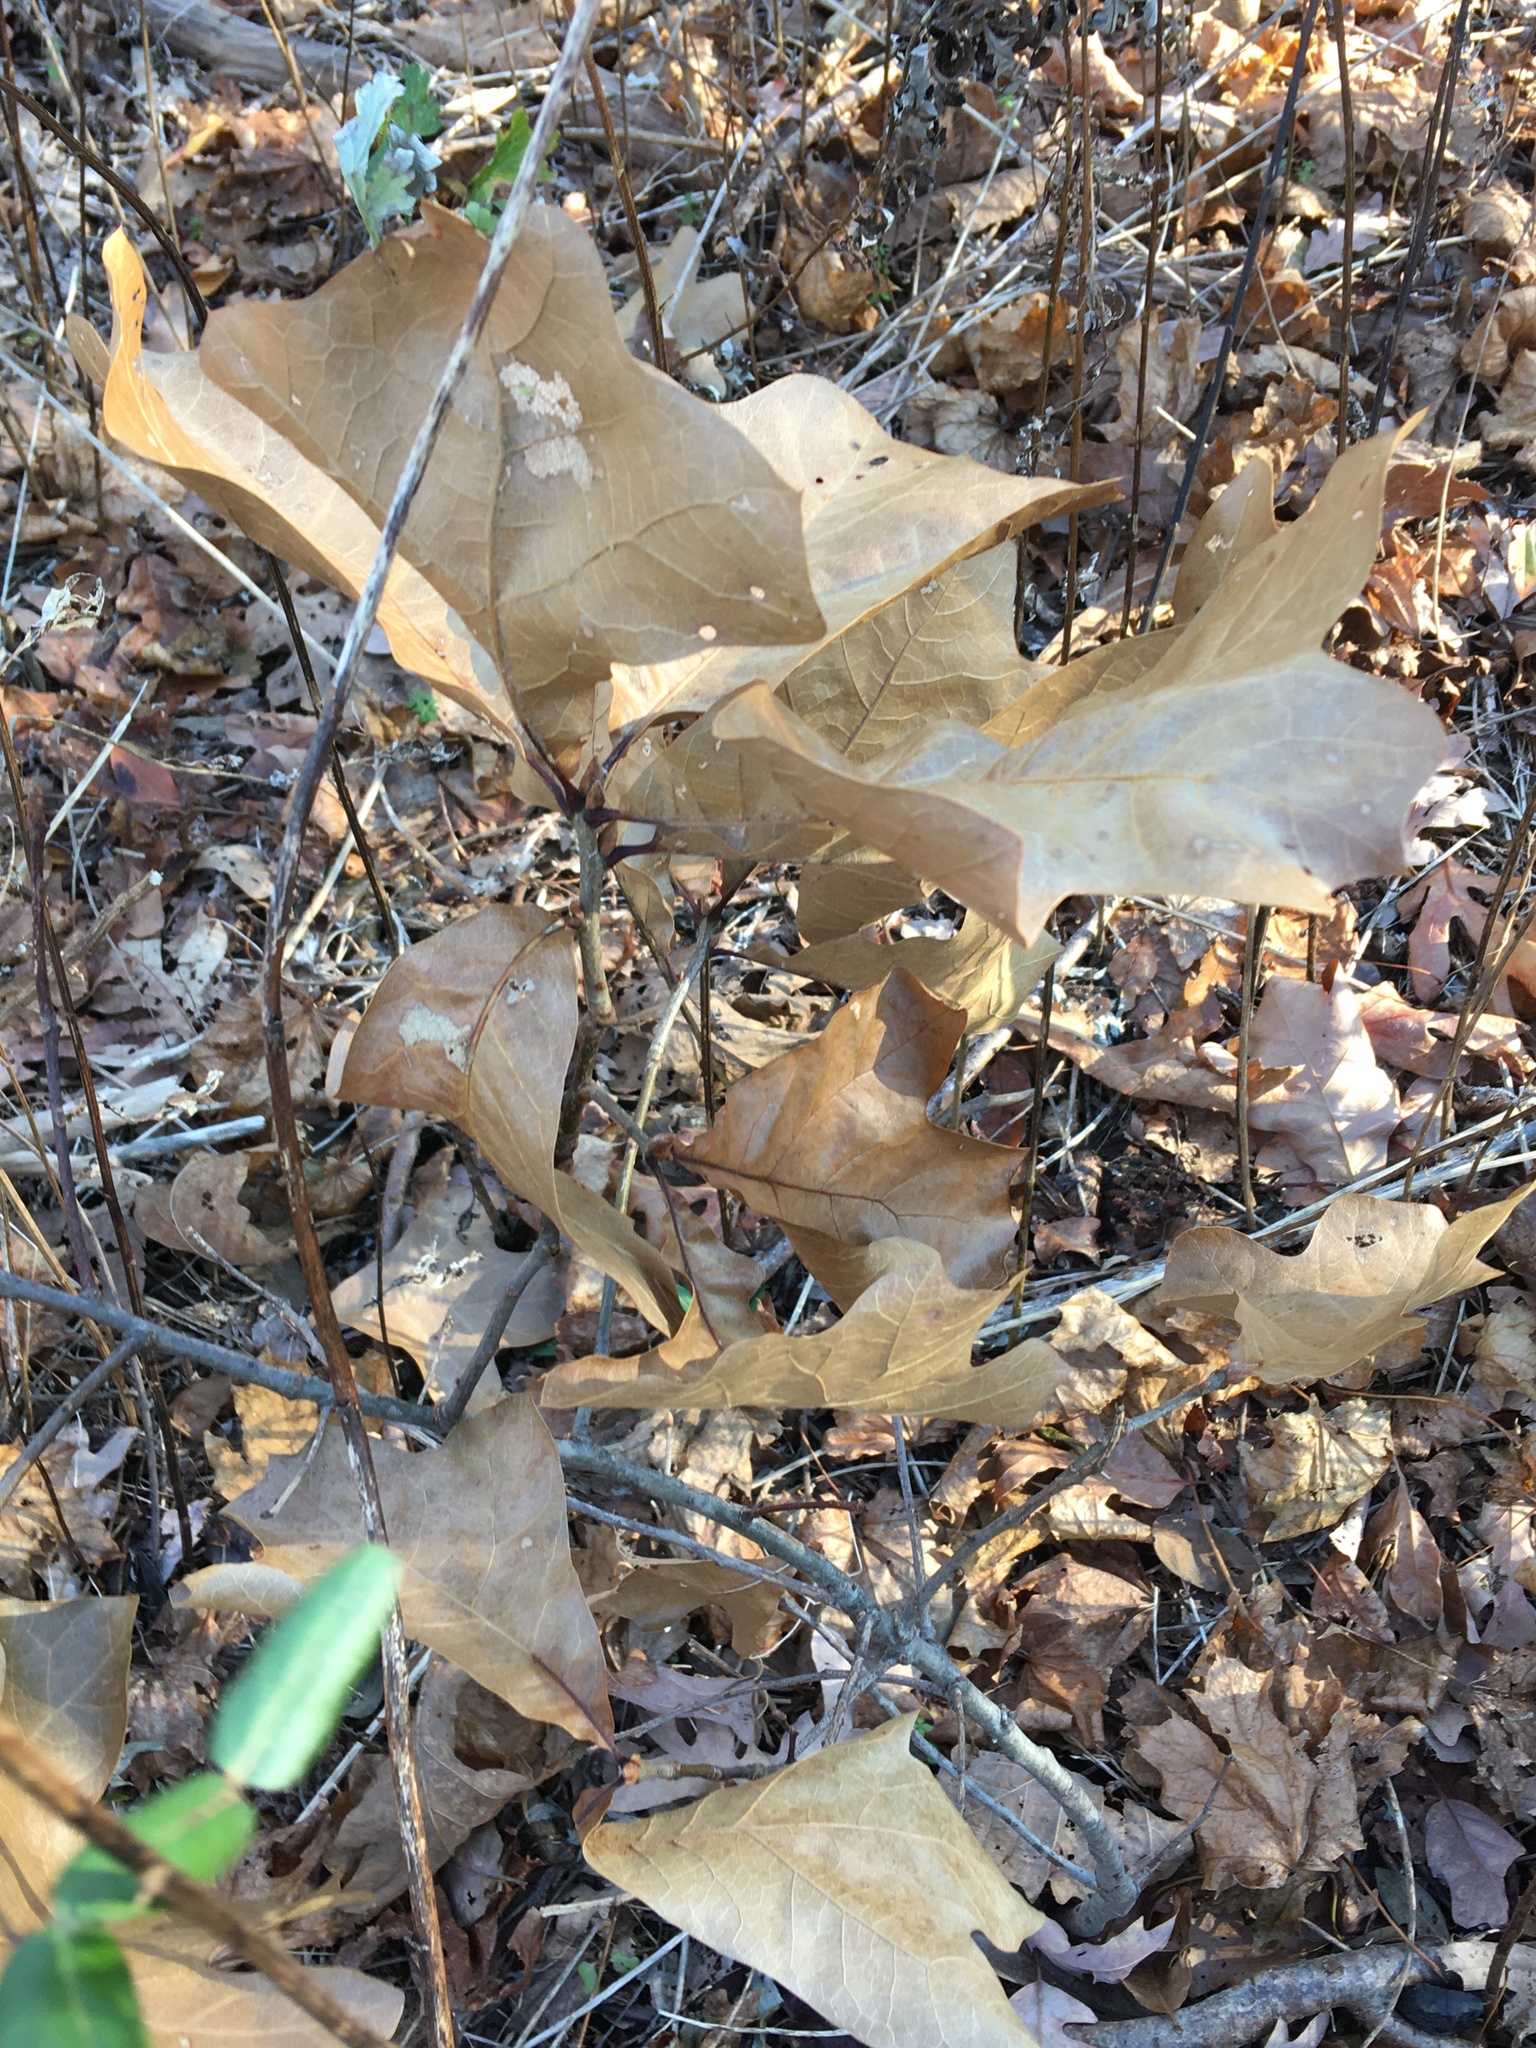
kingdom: Plantae
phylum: Tracheophyta
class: Magnoliopsida
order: Fagales
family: Fagaceae
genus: Quercus
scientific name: Quercus marilandica
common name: Blackjack oak
